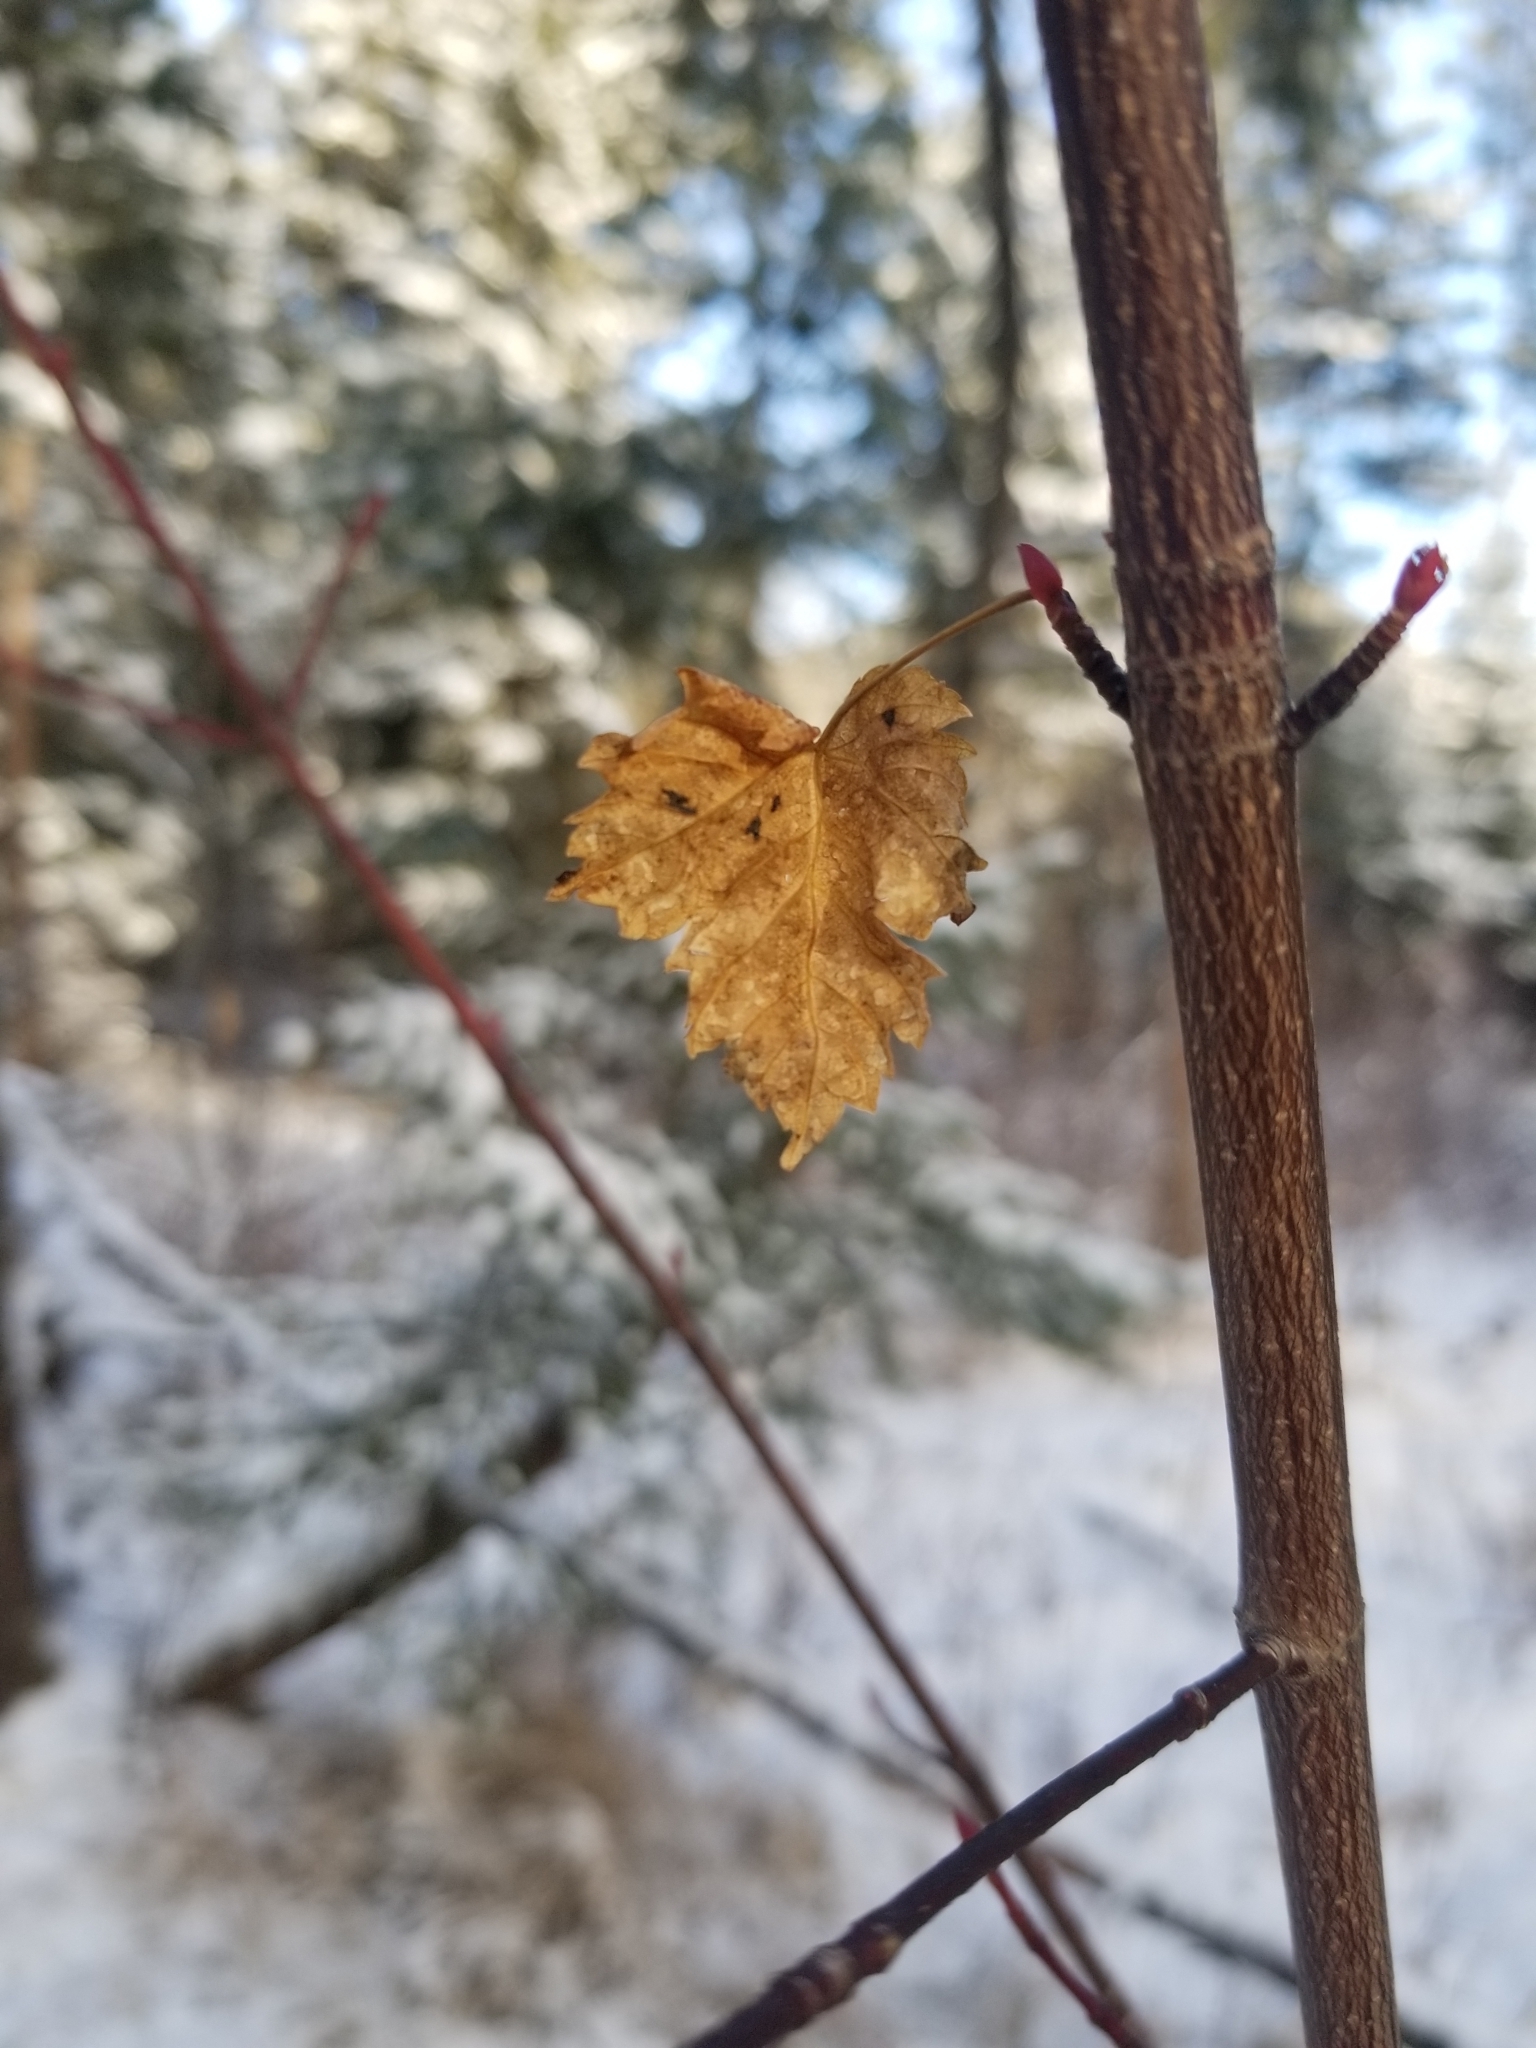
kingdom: Plantae
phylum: Tracheophyta
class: Magnoliopsida
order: Sapindales
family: Sapindaceae
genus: Acer
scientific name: Acer glabrum
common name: Rocky mountain maple
